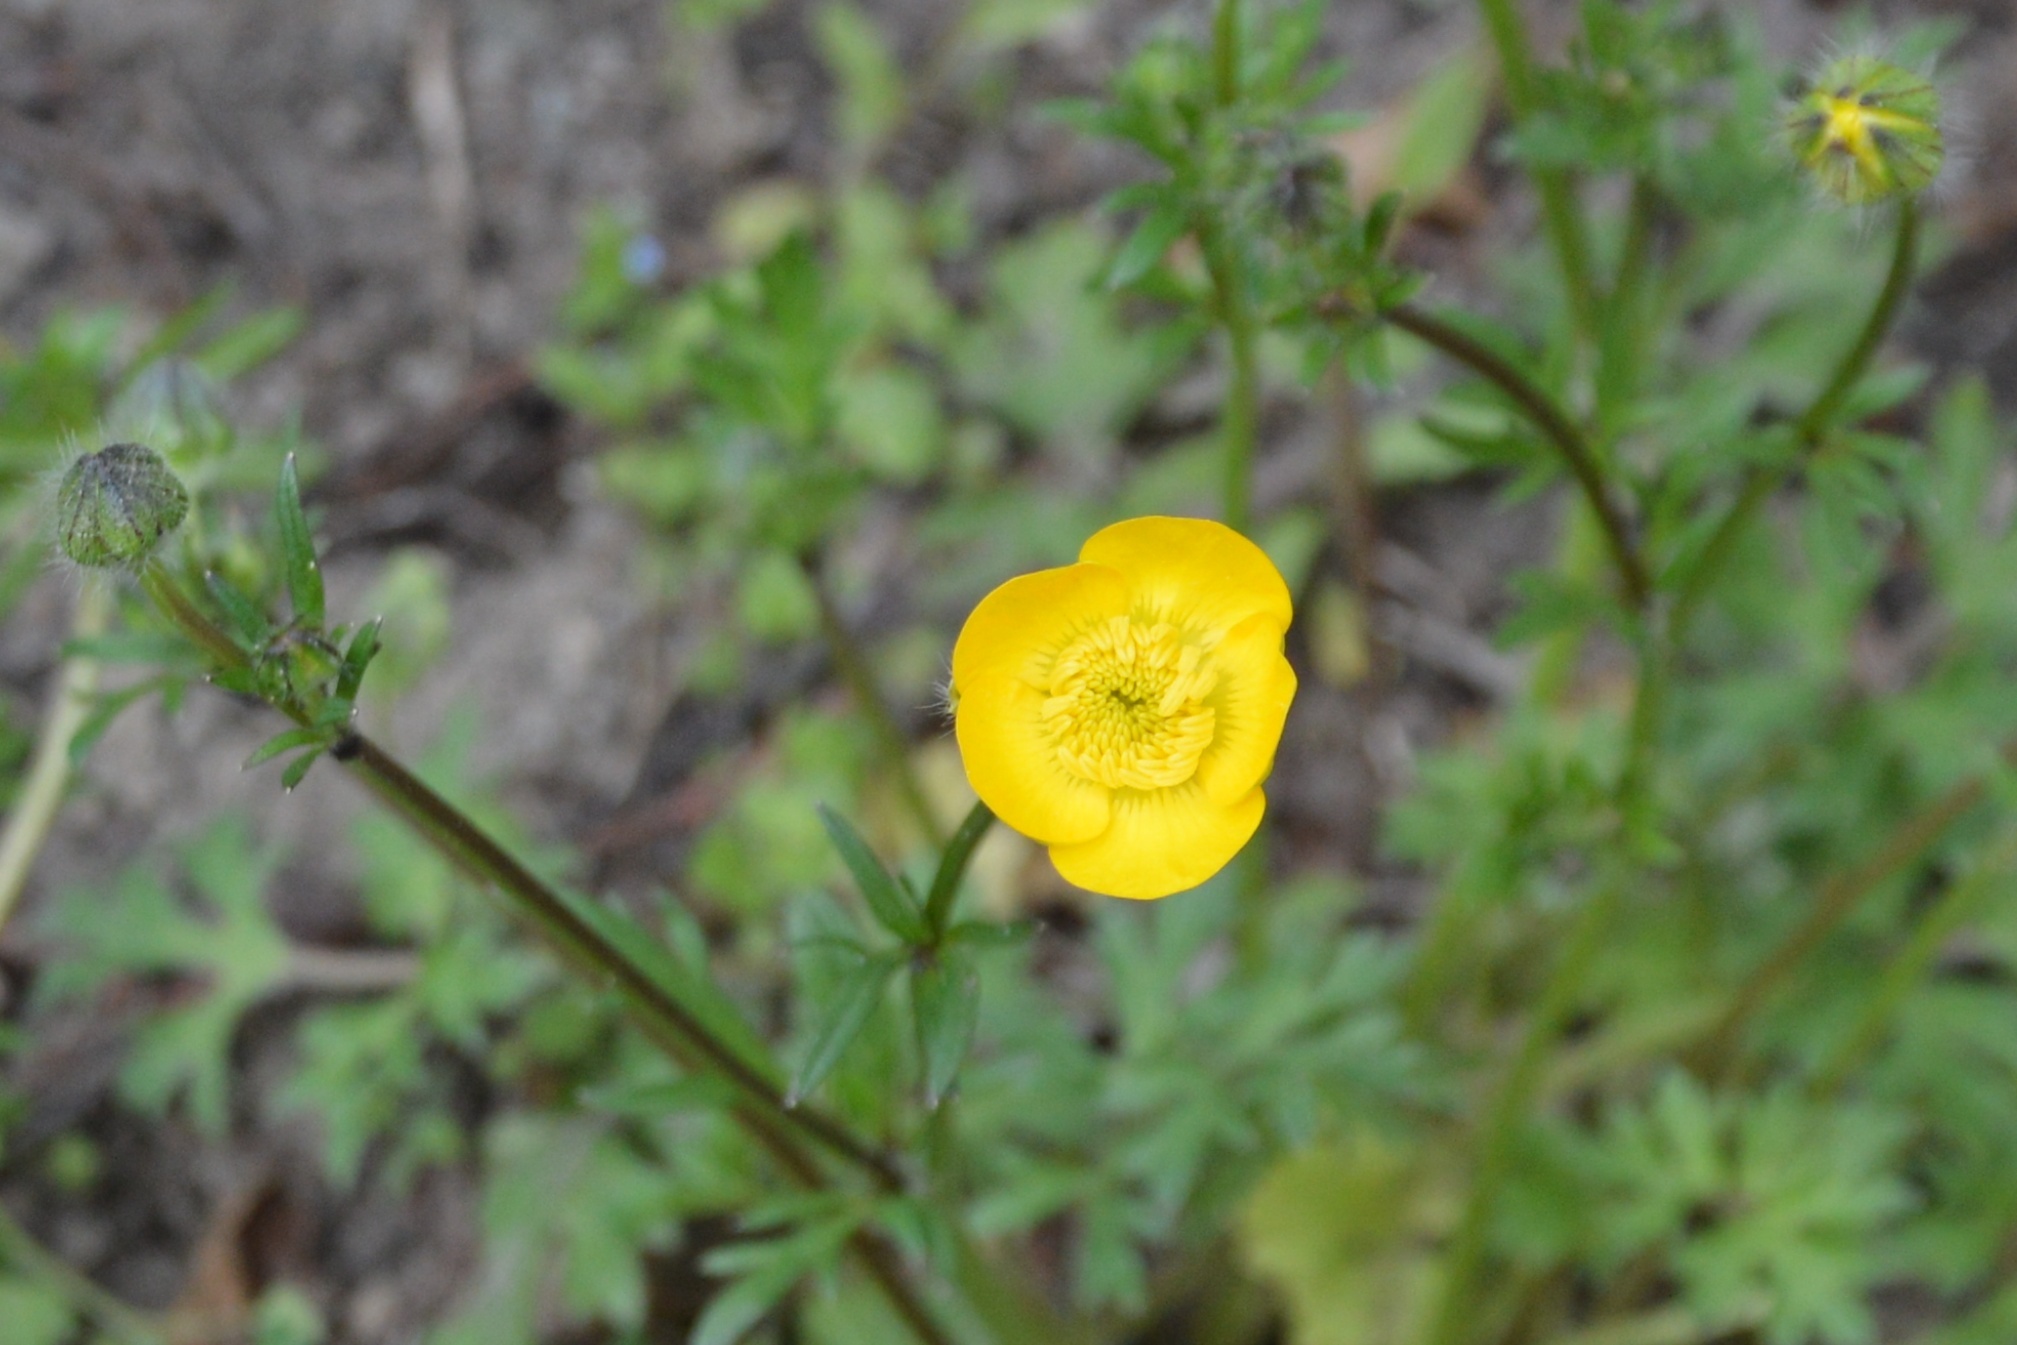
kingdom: Plantae
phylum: Tracheophyta
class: Magnoliopsida
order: Ranunculales
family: Ranunculaceae
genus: Ranunculus
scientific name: Ranunculus bulbosus
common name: Bulbous buttercup
